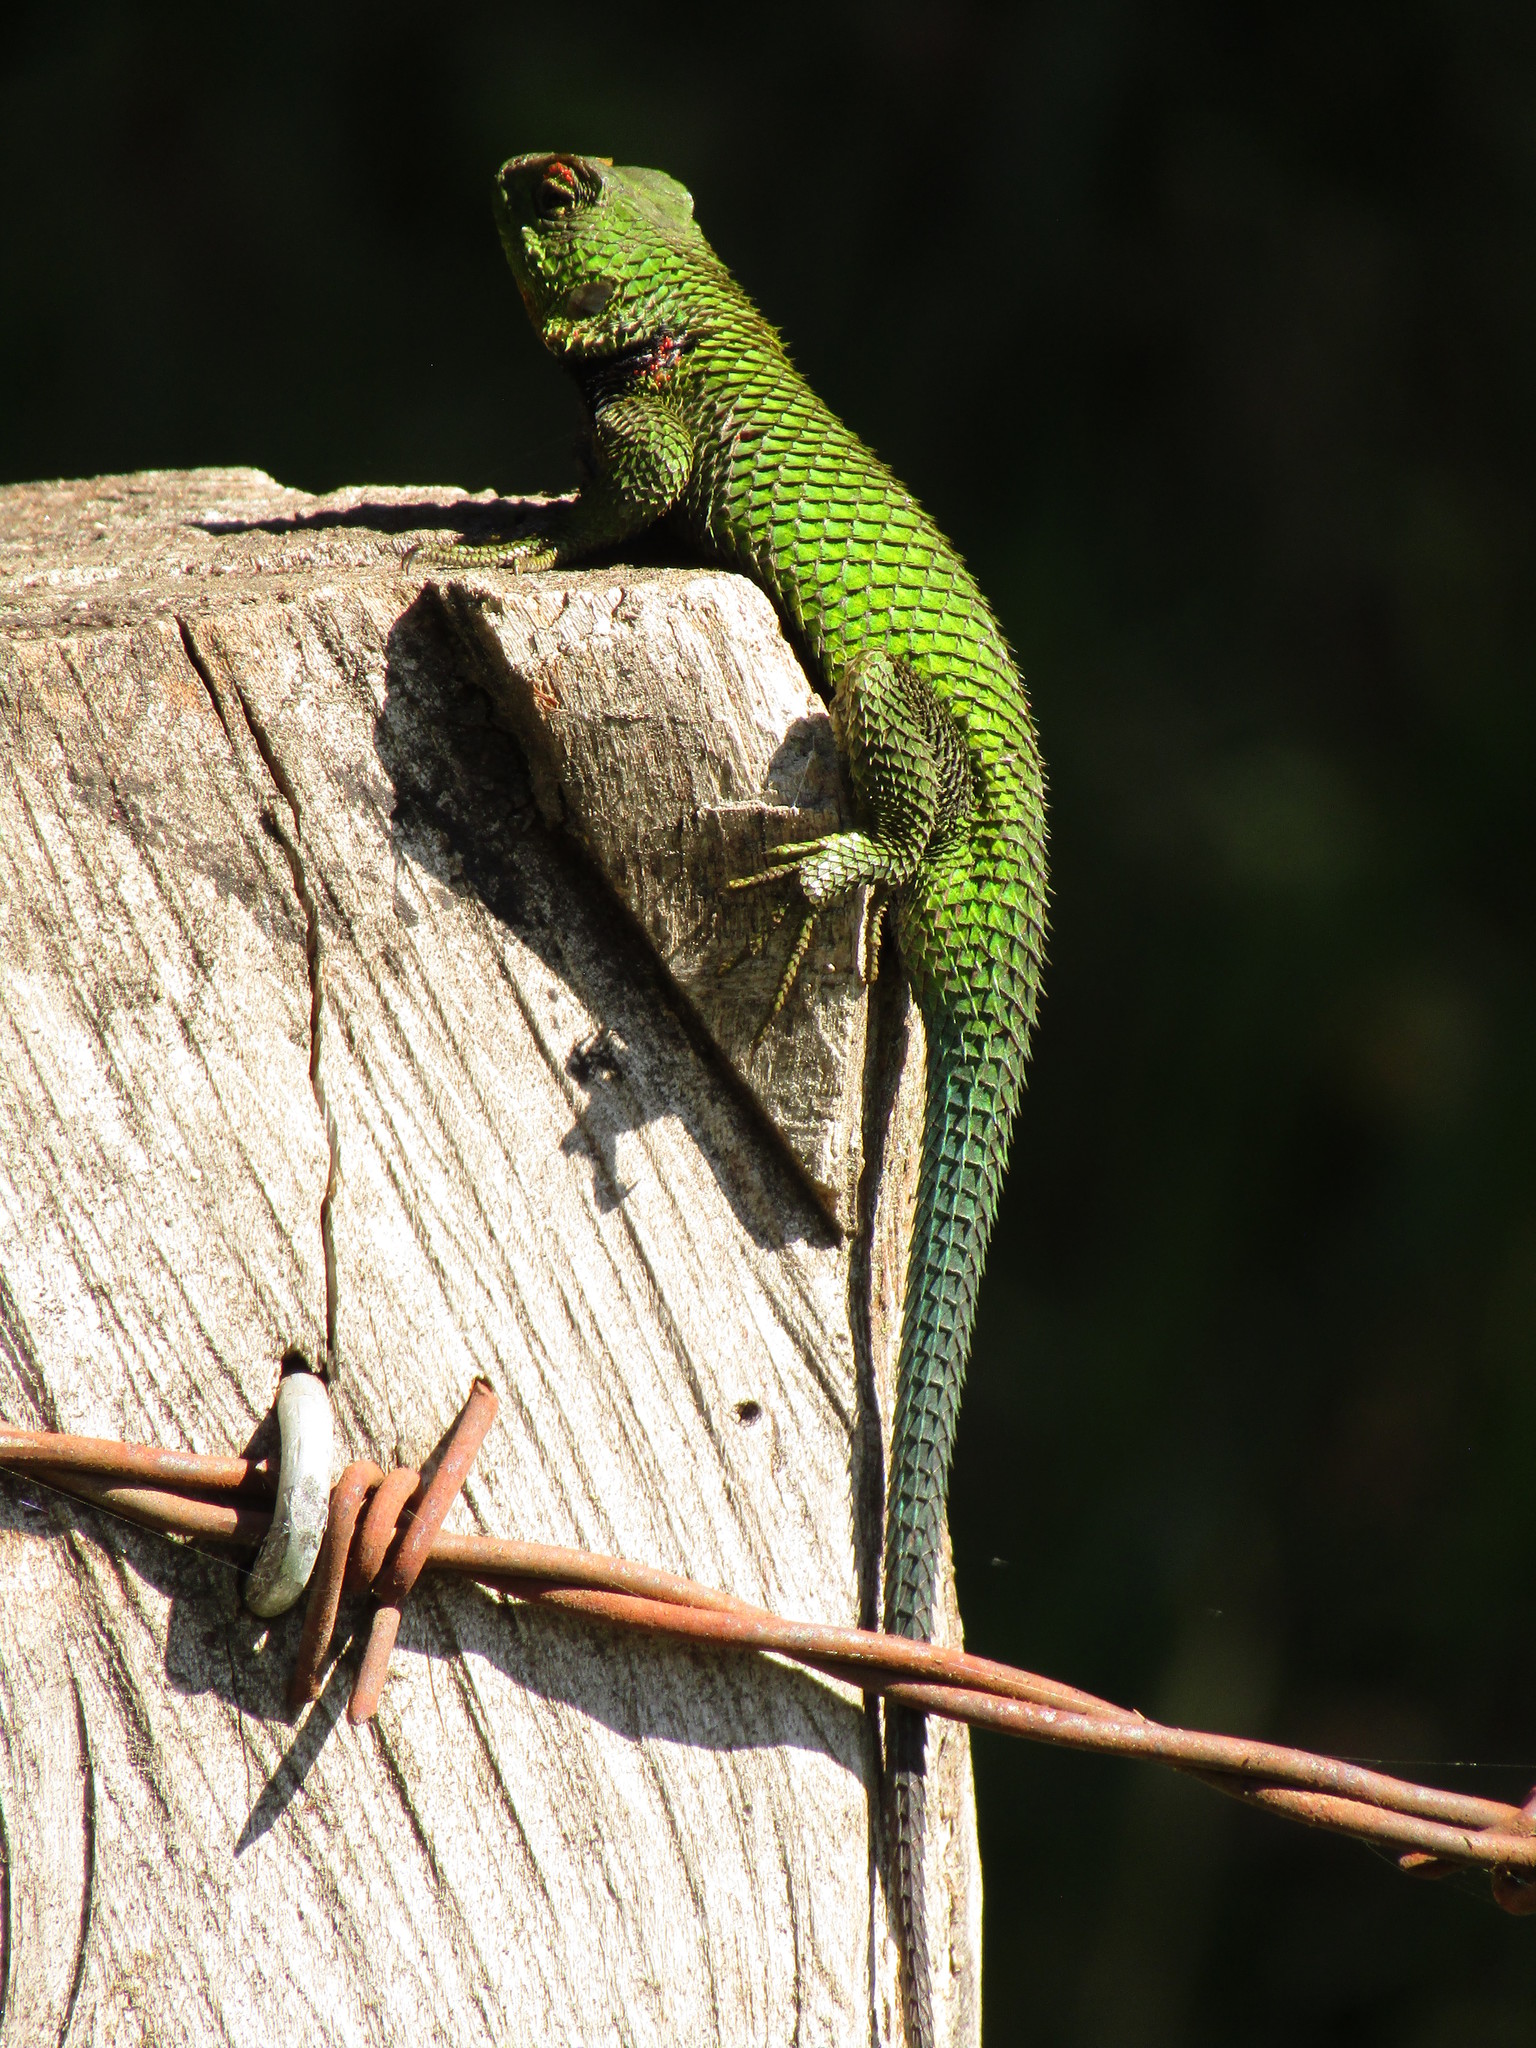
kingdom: Animalia
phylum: Chordata
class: Squamata
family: Phrynosomatidae
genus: Sceloporus
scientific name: Sceloporus formosus
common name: Mexican emerald spiny lizard
